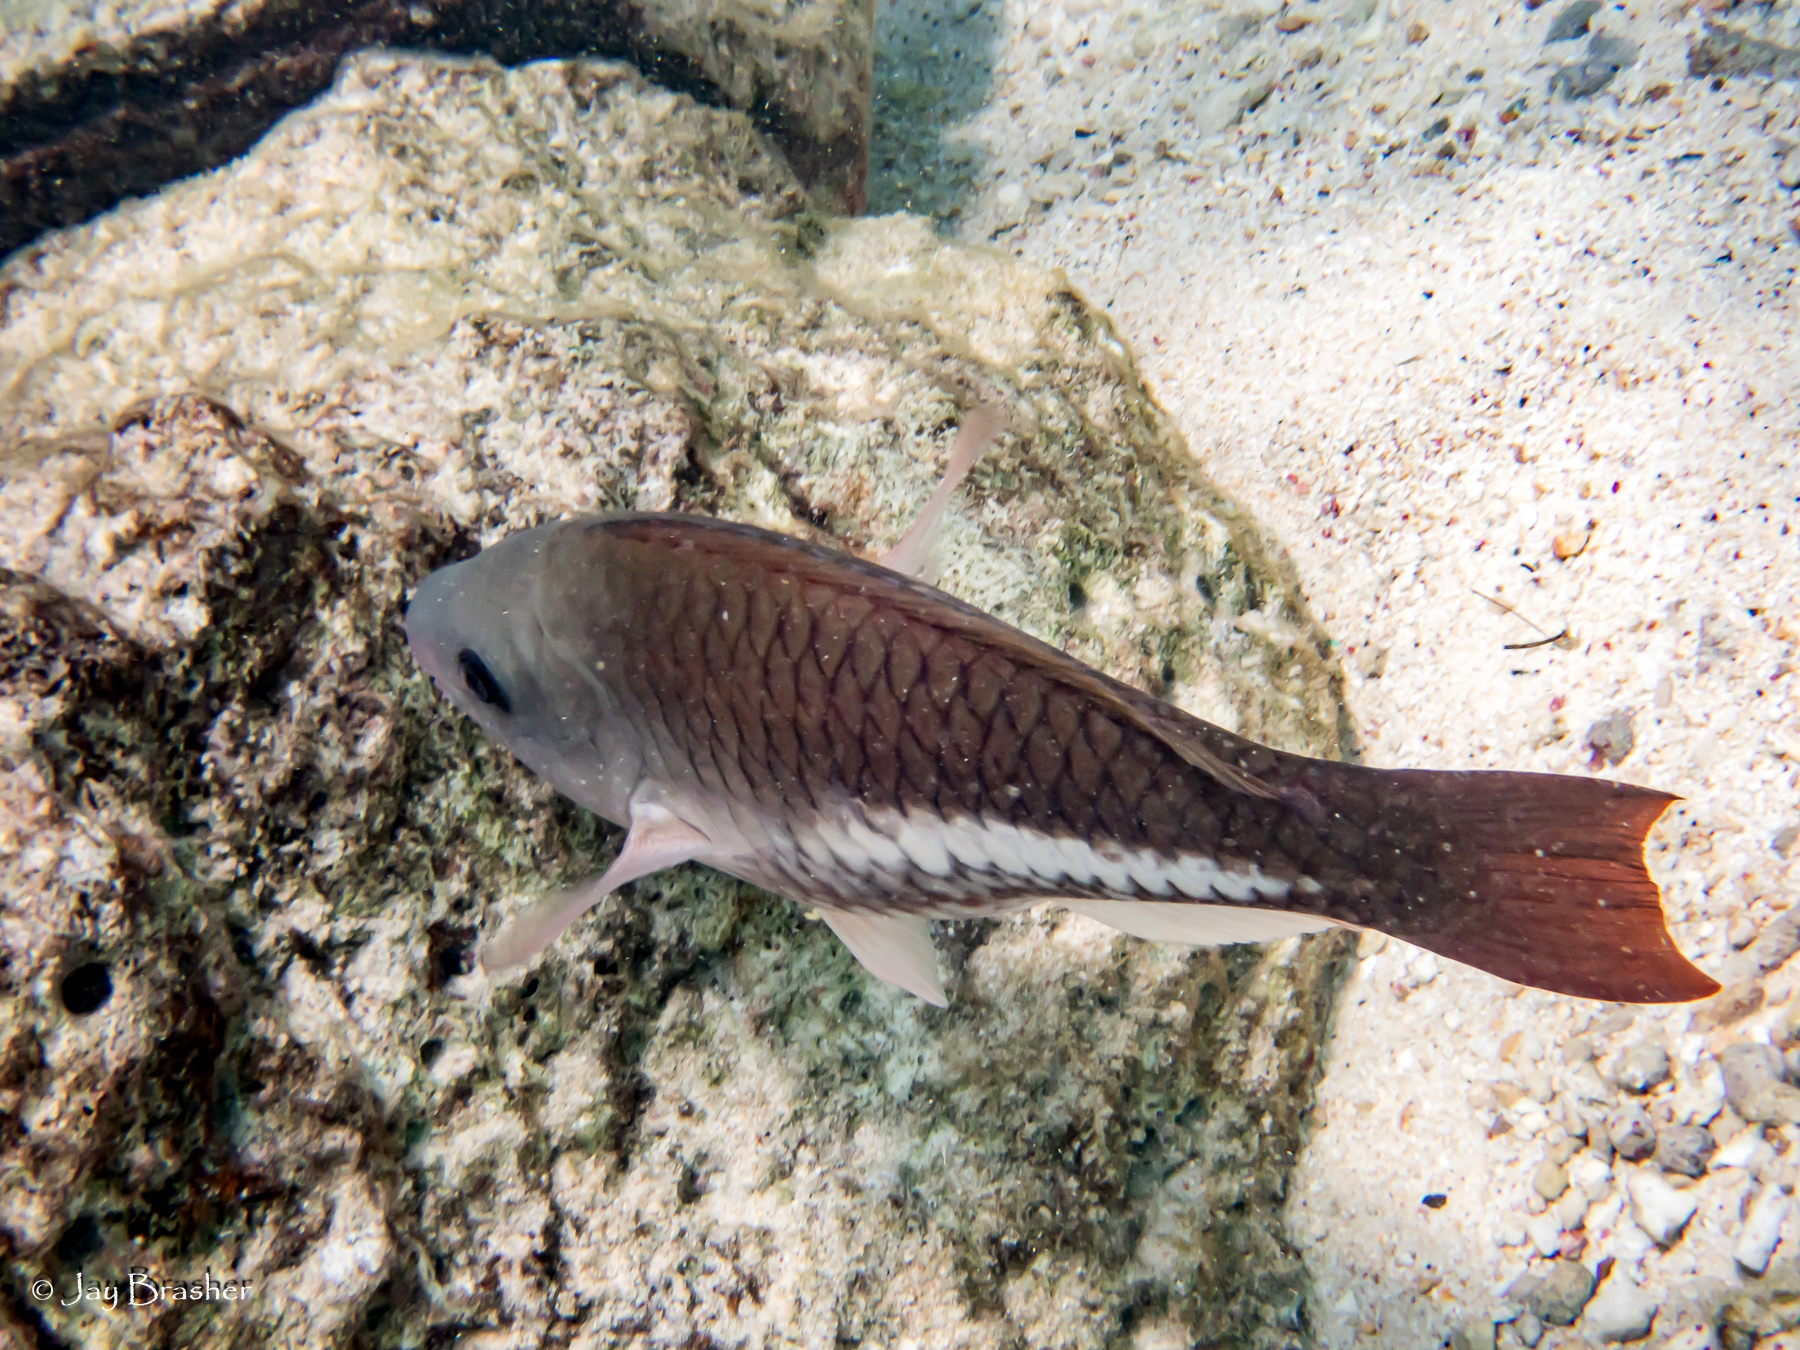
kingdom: Animalia
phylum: Chordata
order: Perciformes
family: Scaridae
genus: Scarus
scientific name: Scarus vetula
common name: Queen parrotfish
